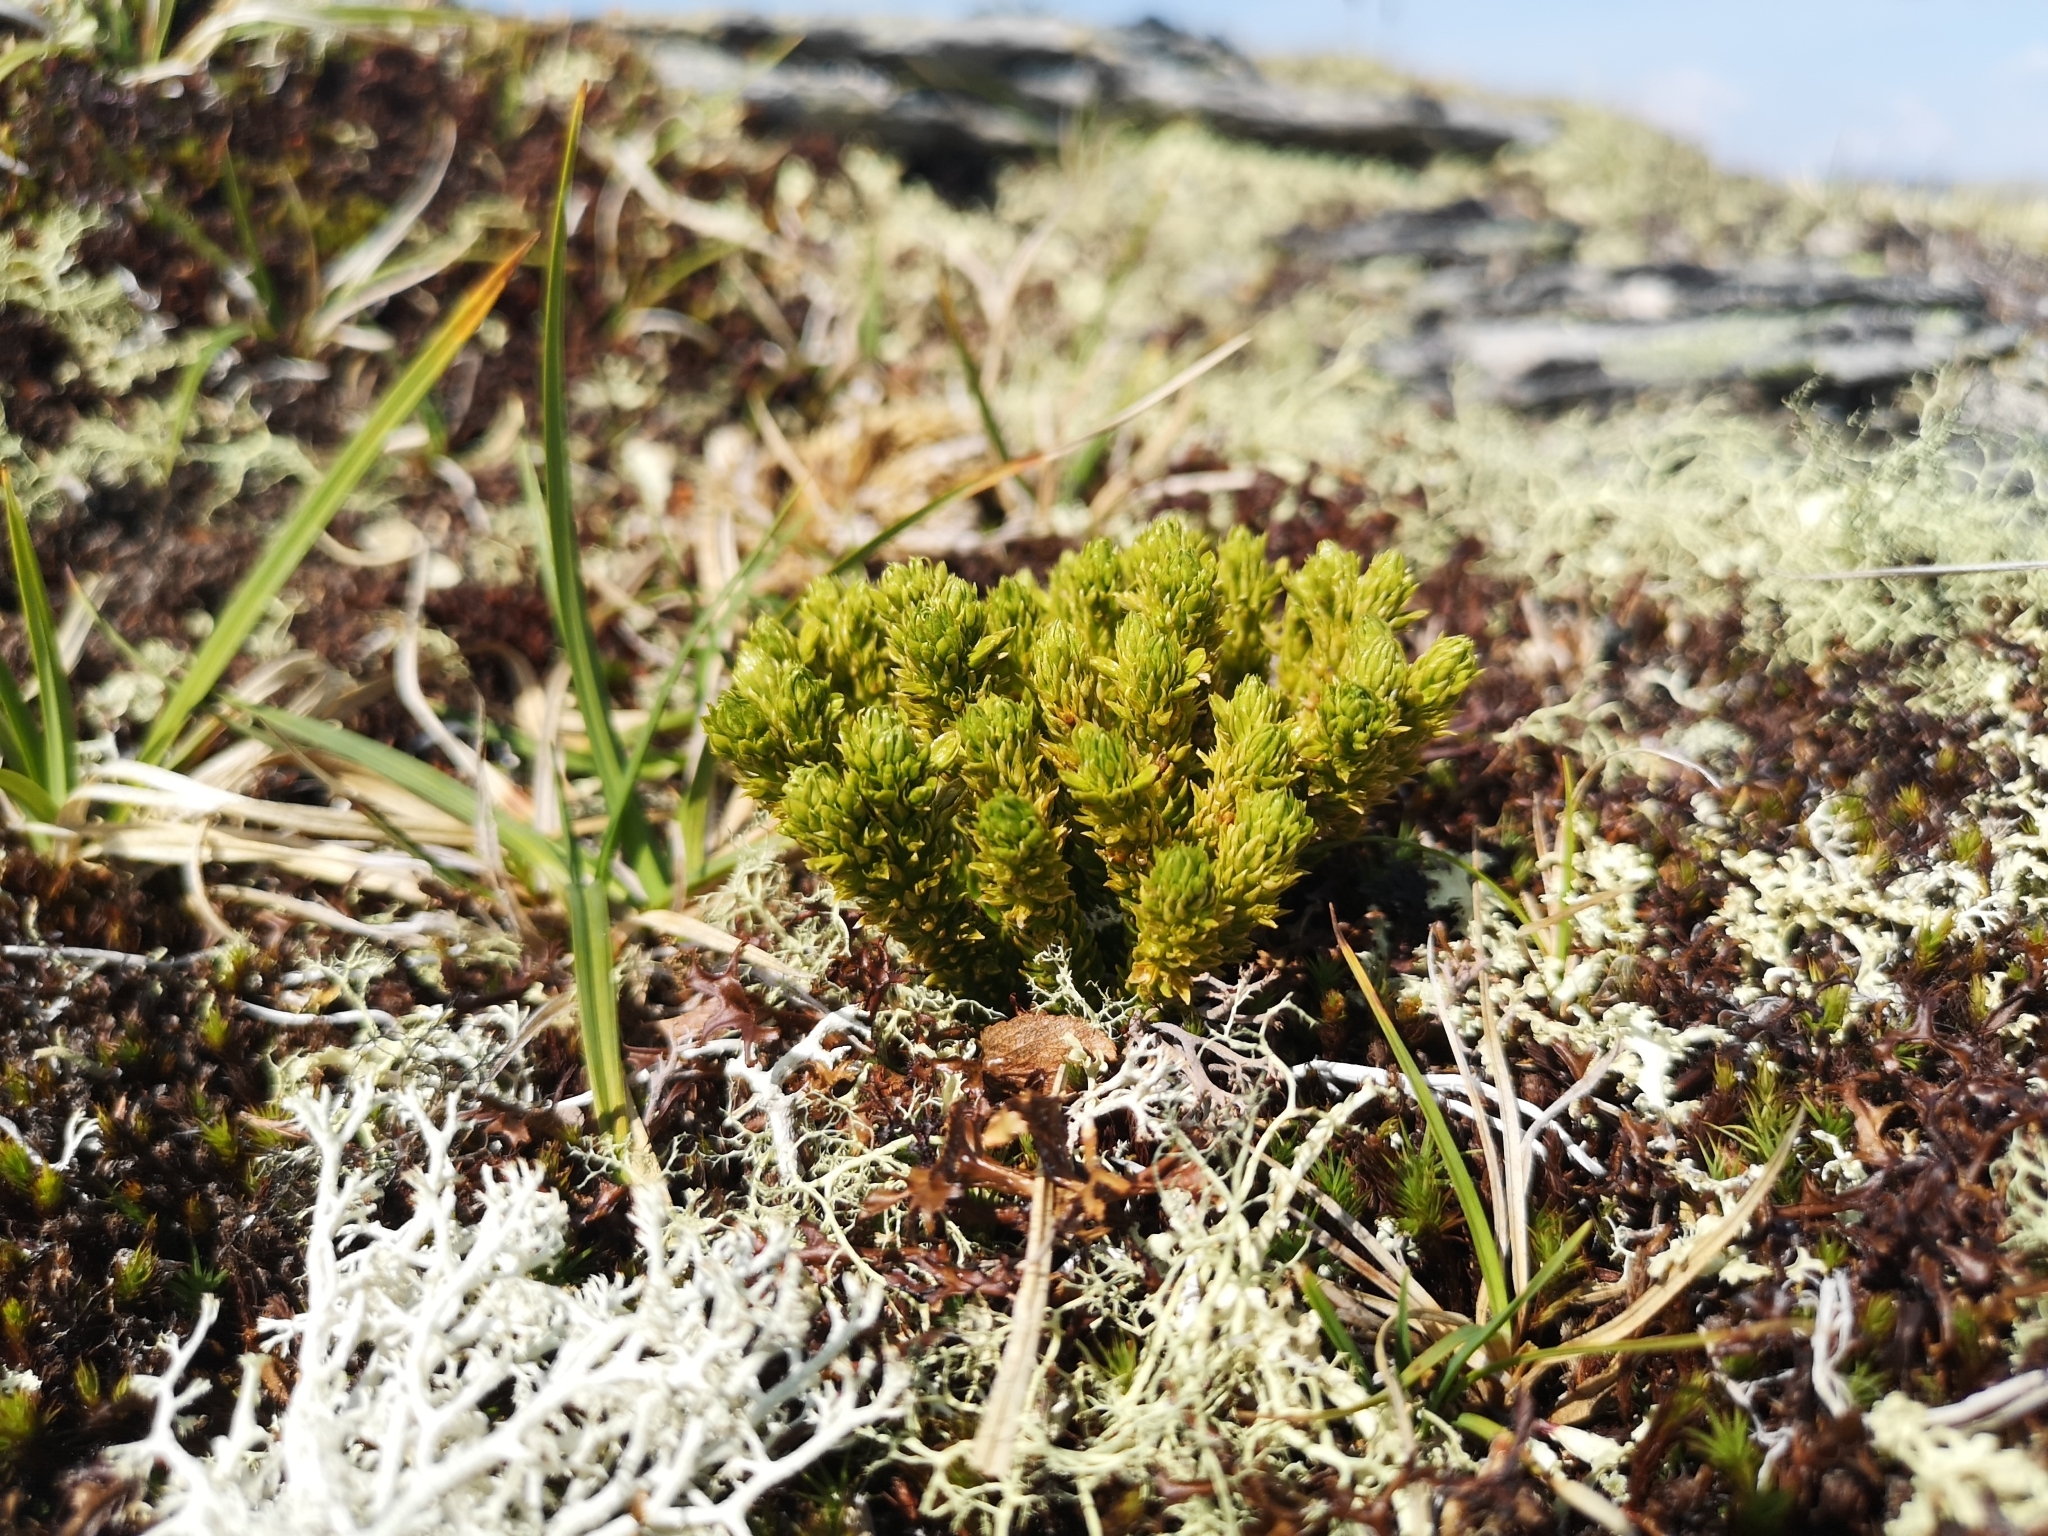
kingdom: Plantae
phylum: Tracheophyta
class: Lycopodiopsida
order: Lycopodiales
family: Lycopodiaceae
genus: Huperzia
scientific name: Huperzia selago
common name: Northern firmoss
